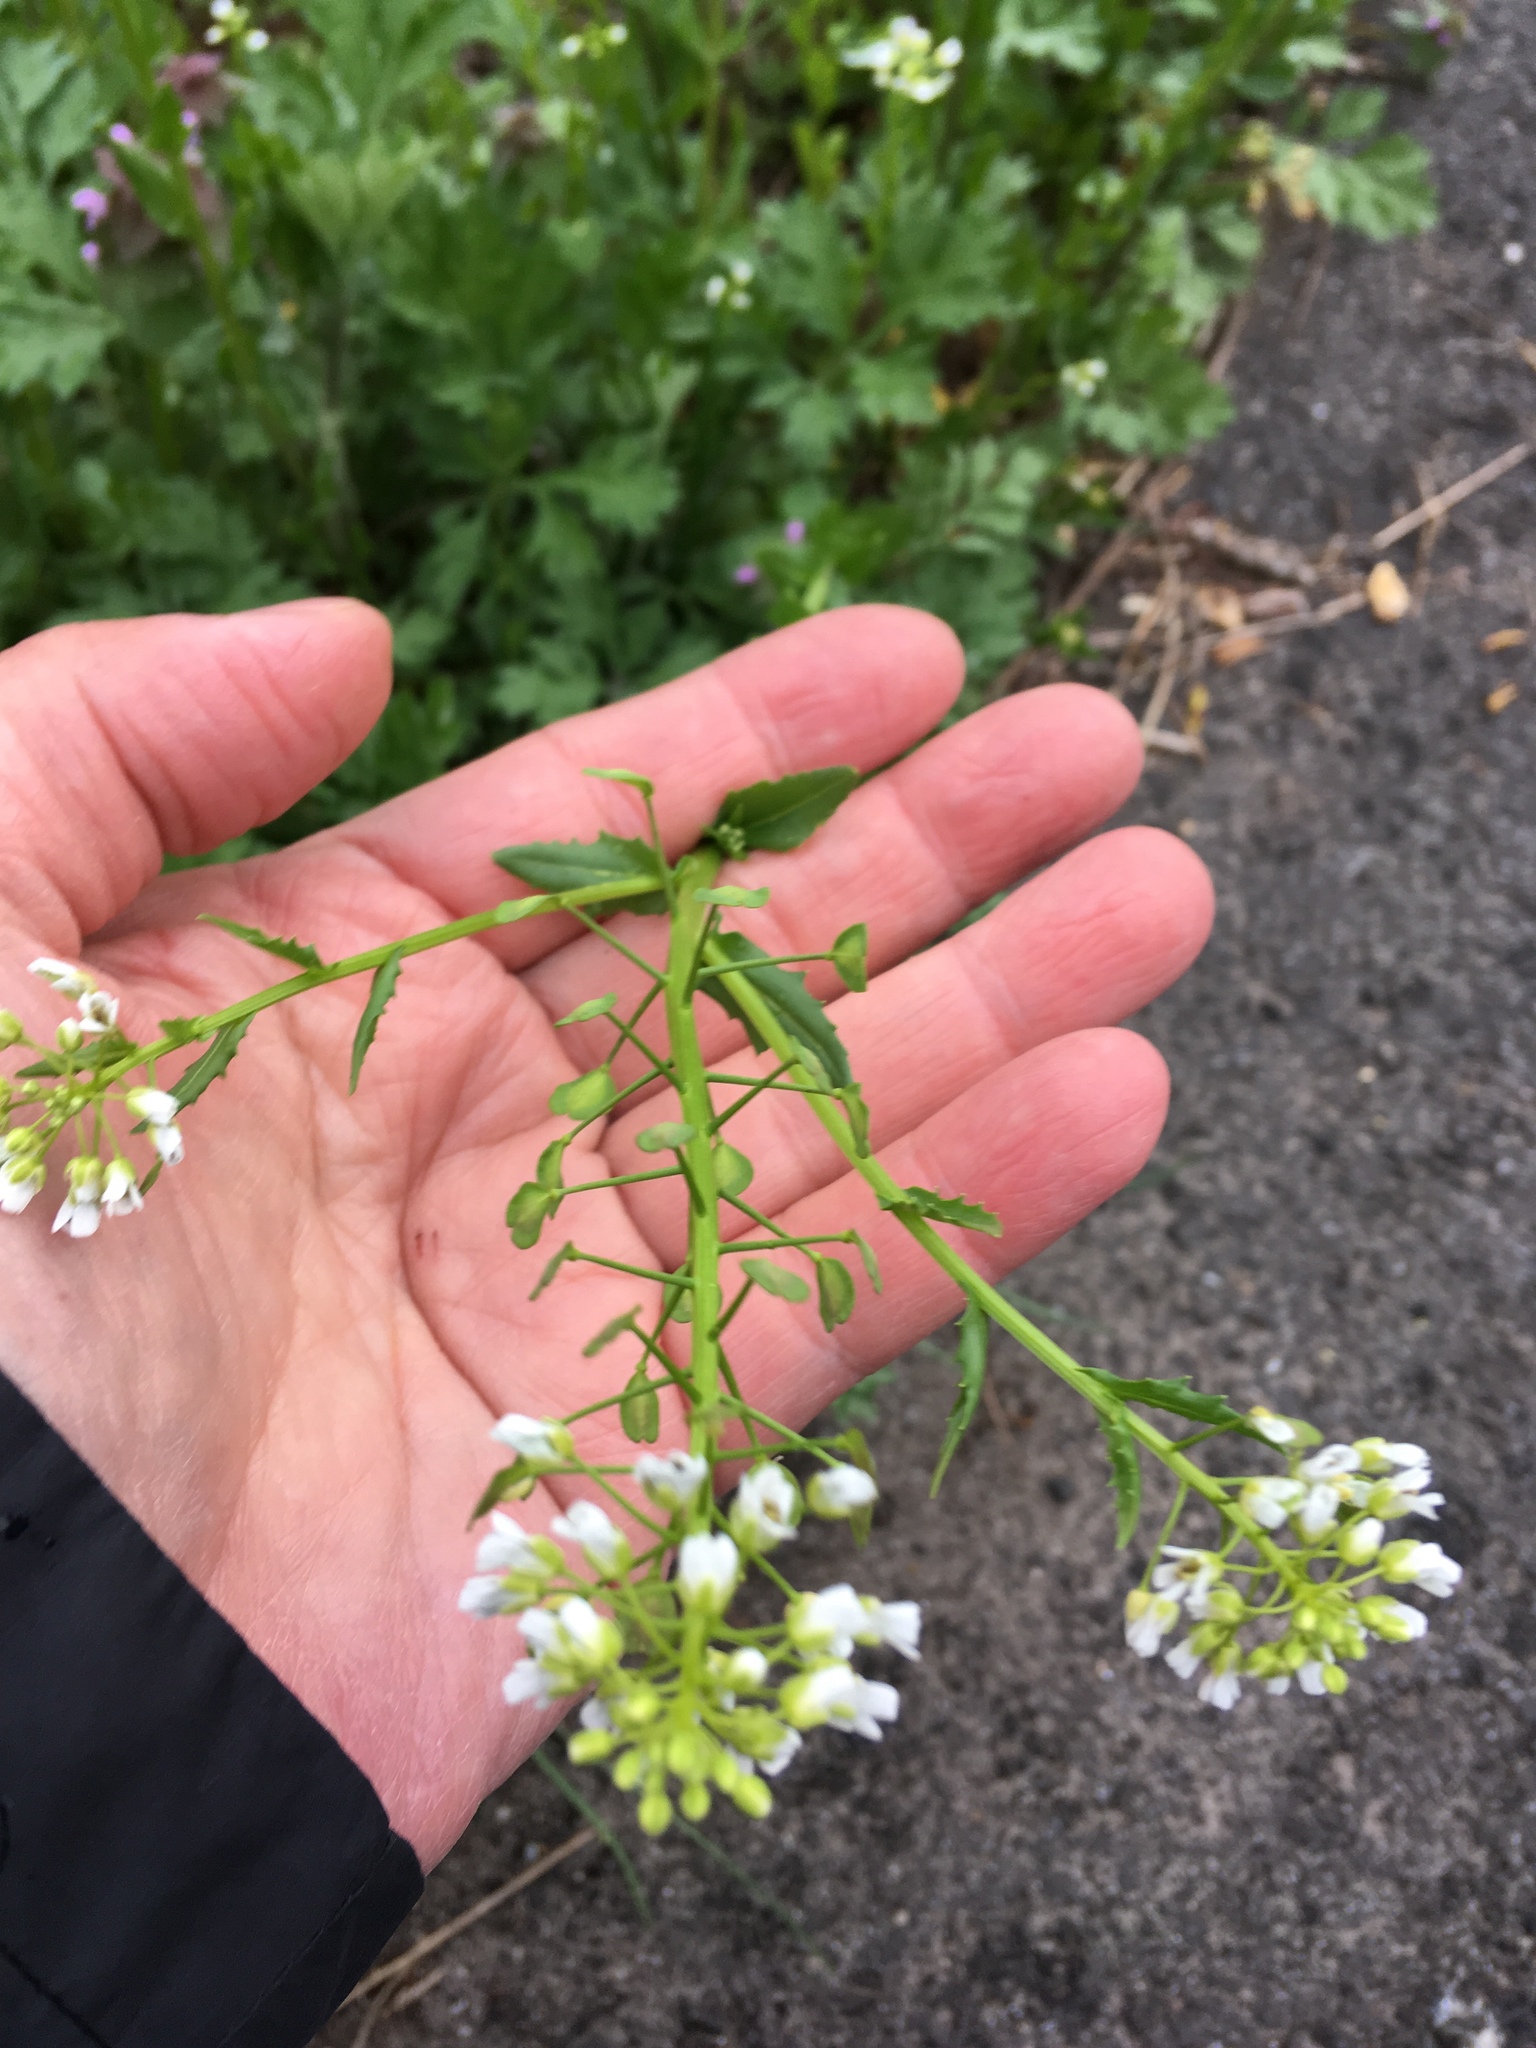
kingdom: Plantae
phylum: Tracheophyta
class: Magnoliopsida
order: Brassicales
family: Brassicaceae
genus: Thlaspi
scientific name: Thlaspi arvense
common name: Field pennycress
